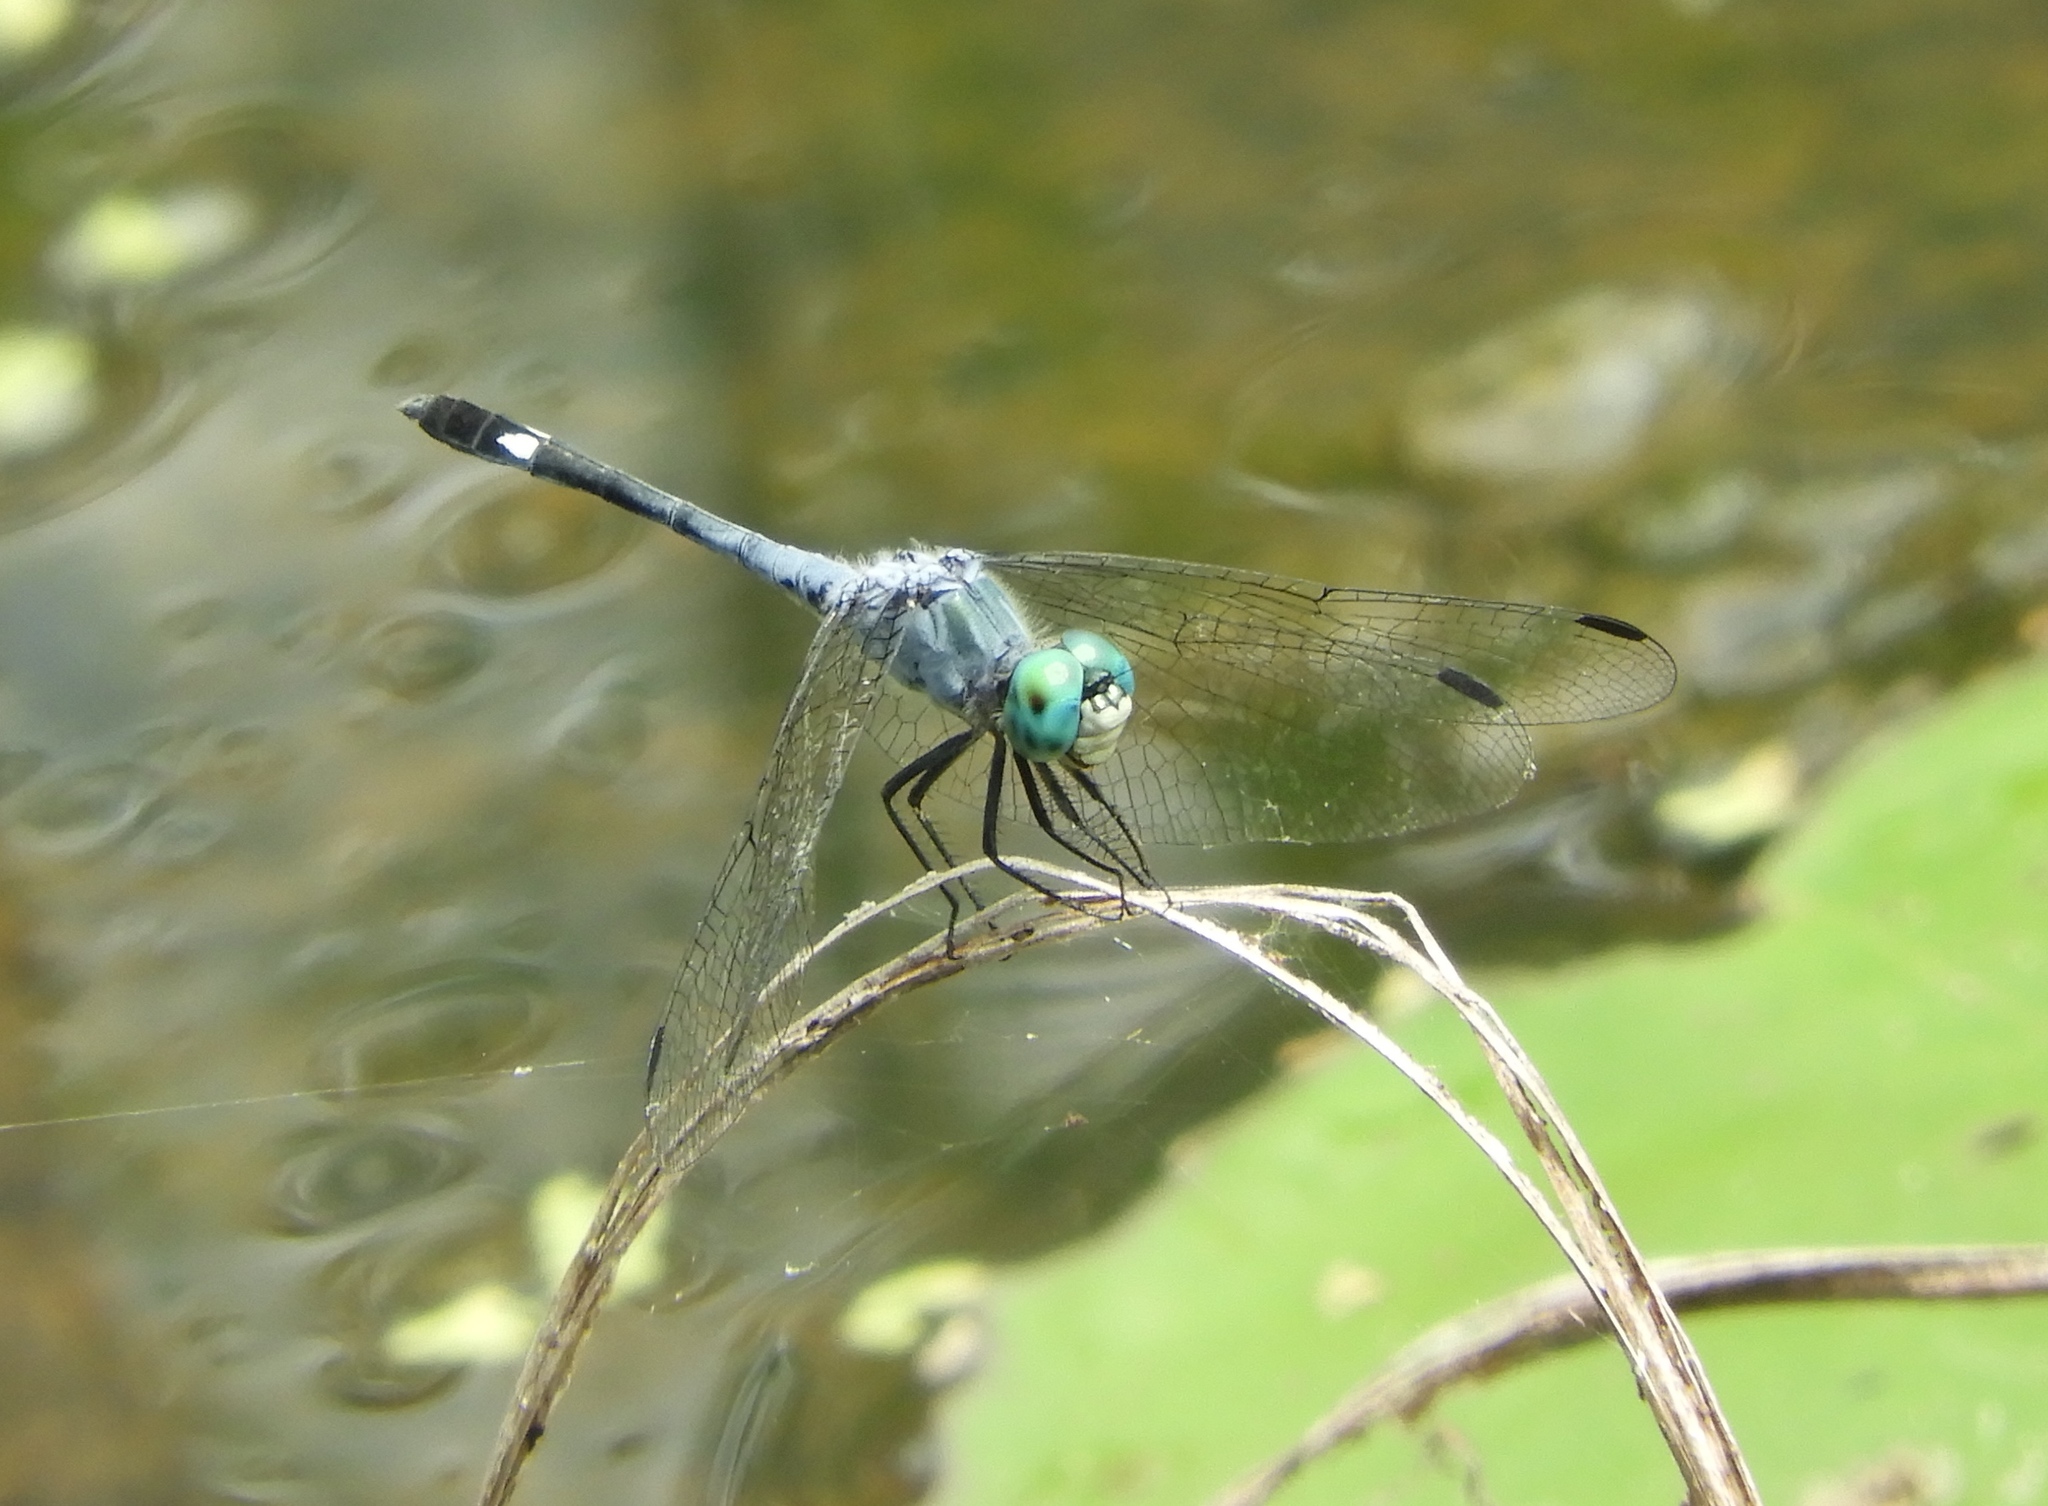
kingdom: Animalia
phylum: Arthropoda
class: Insecta
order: Odonata
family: Libellulidae
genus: Micrathyria
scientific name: Micrathyria aequalis
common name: Spot-tailed dasher
